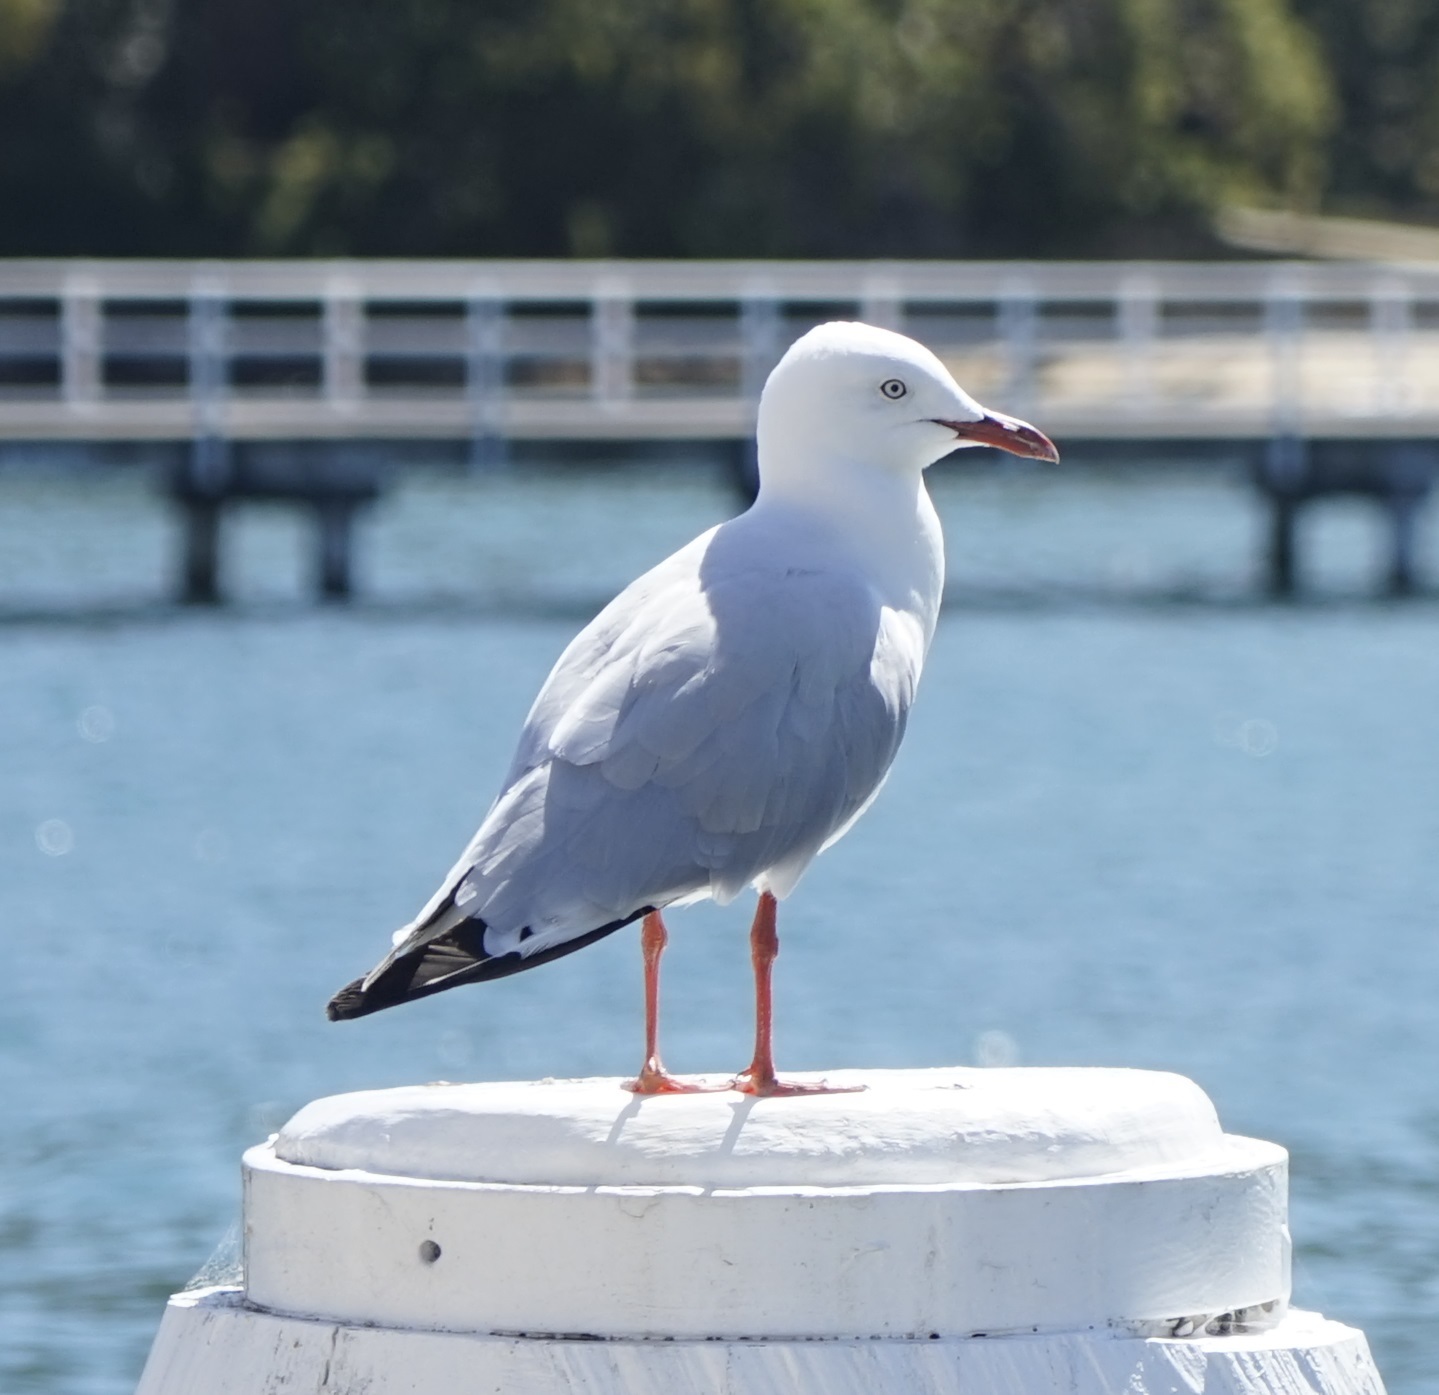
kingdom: Animalia
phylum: Chordata
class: Aves
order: Charadriiformes
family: Laridae
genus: Chroicocephalus
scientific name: Chroicocephalus novaehollandiae
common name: Silver gull
